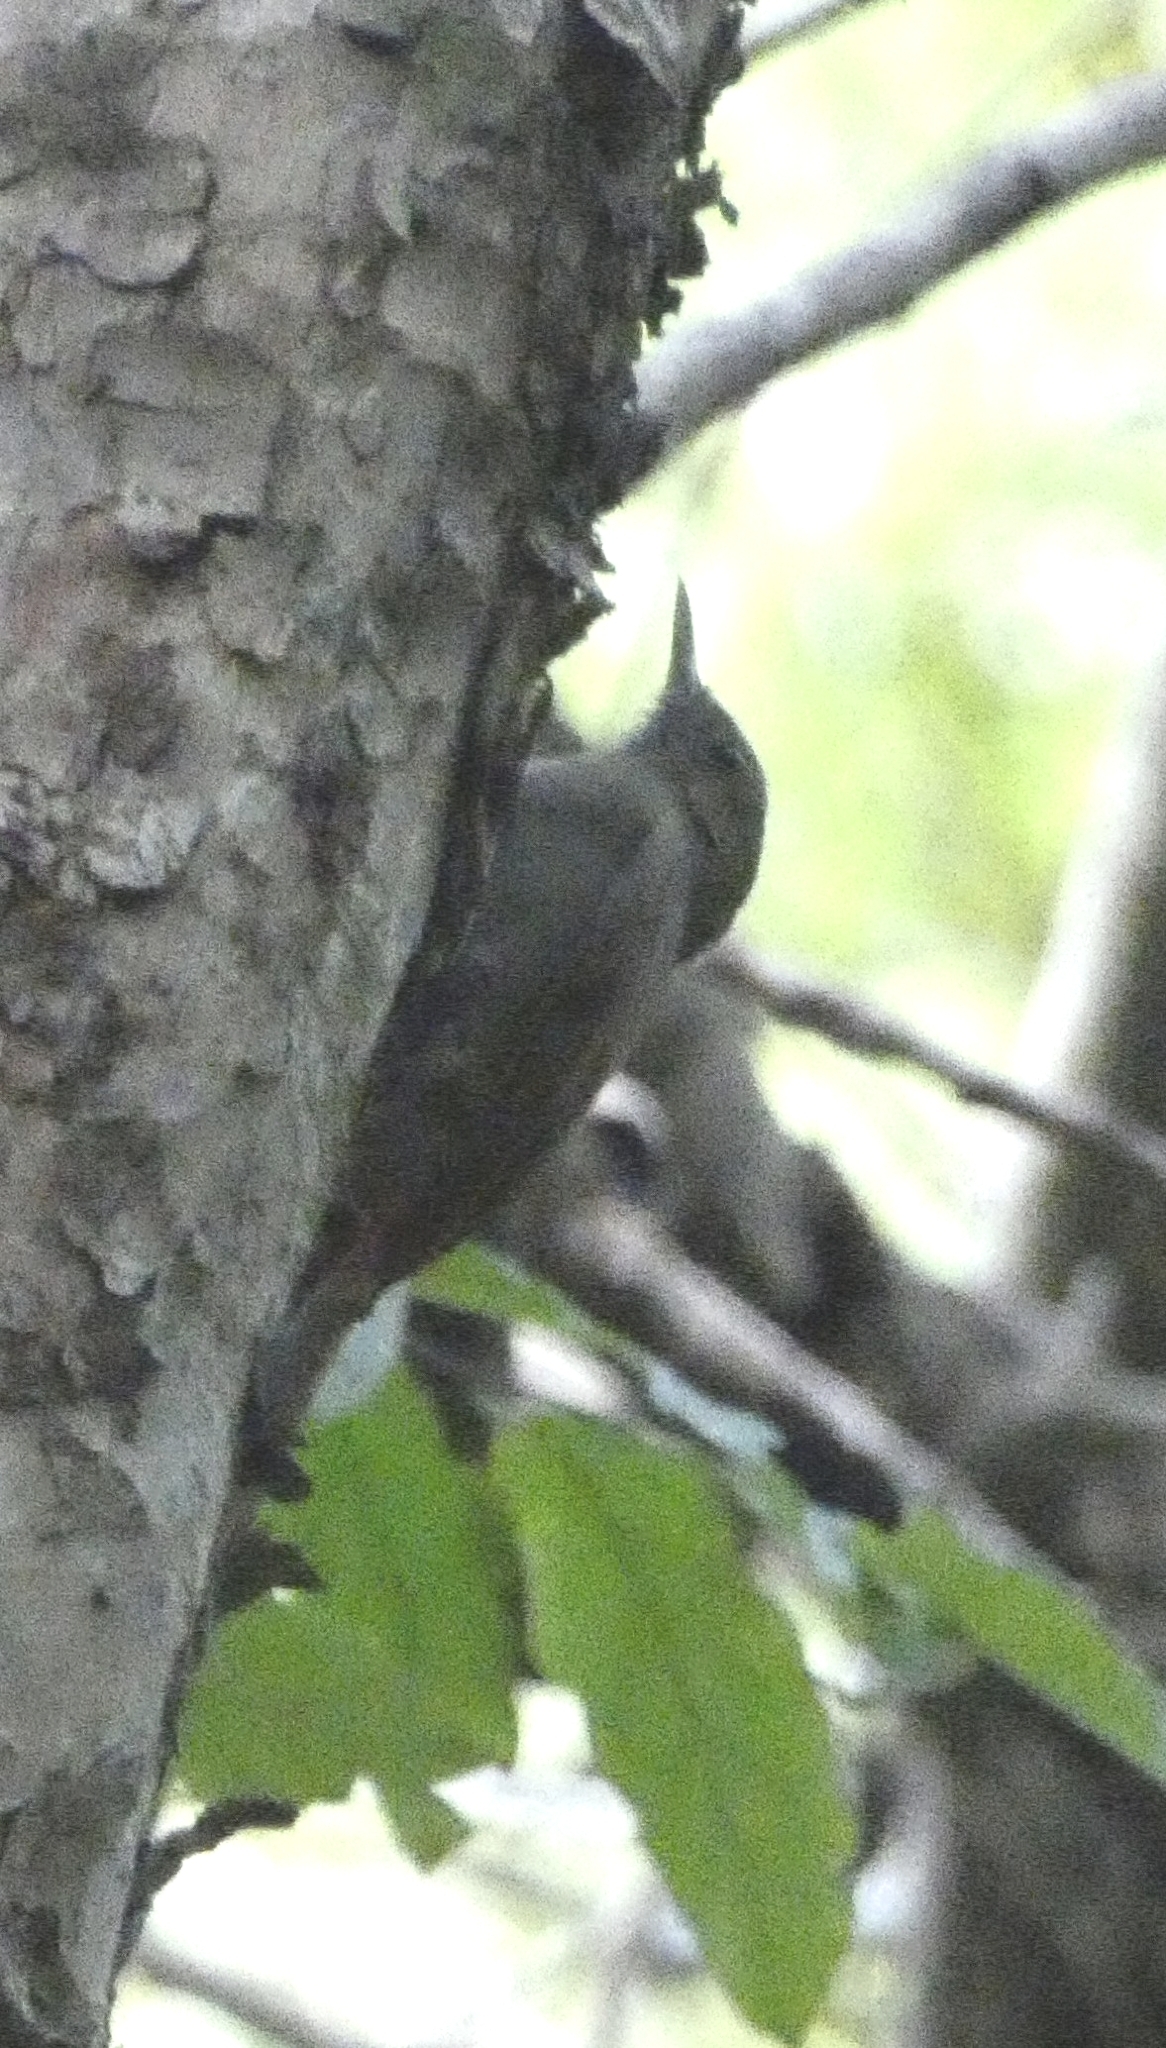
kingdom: Animalia
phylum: Chordata
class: Aves
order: Passeriformes
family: Furnariidae
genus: Sittasomus
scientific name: Sittasomus griseicapillus
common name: Olivaceous woodcreeper
